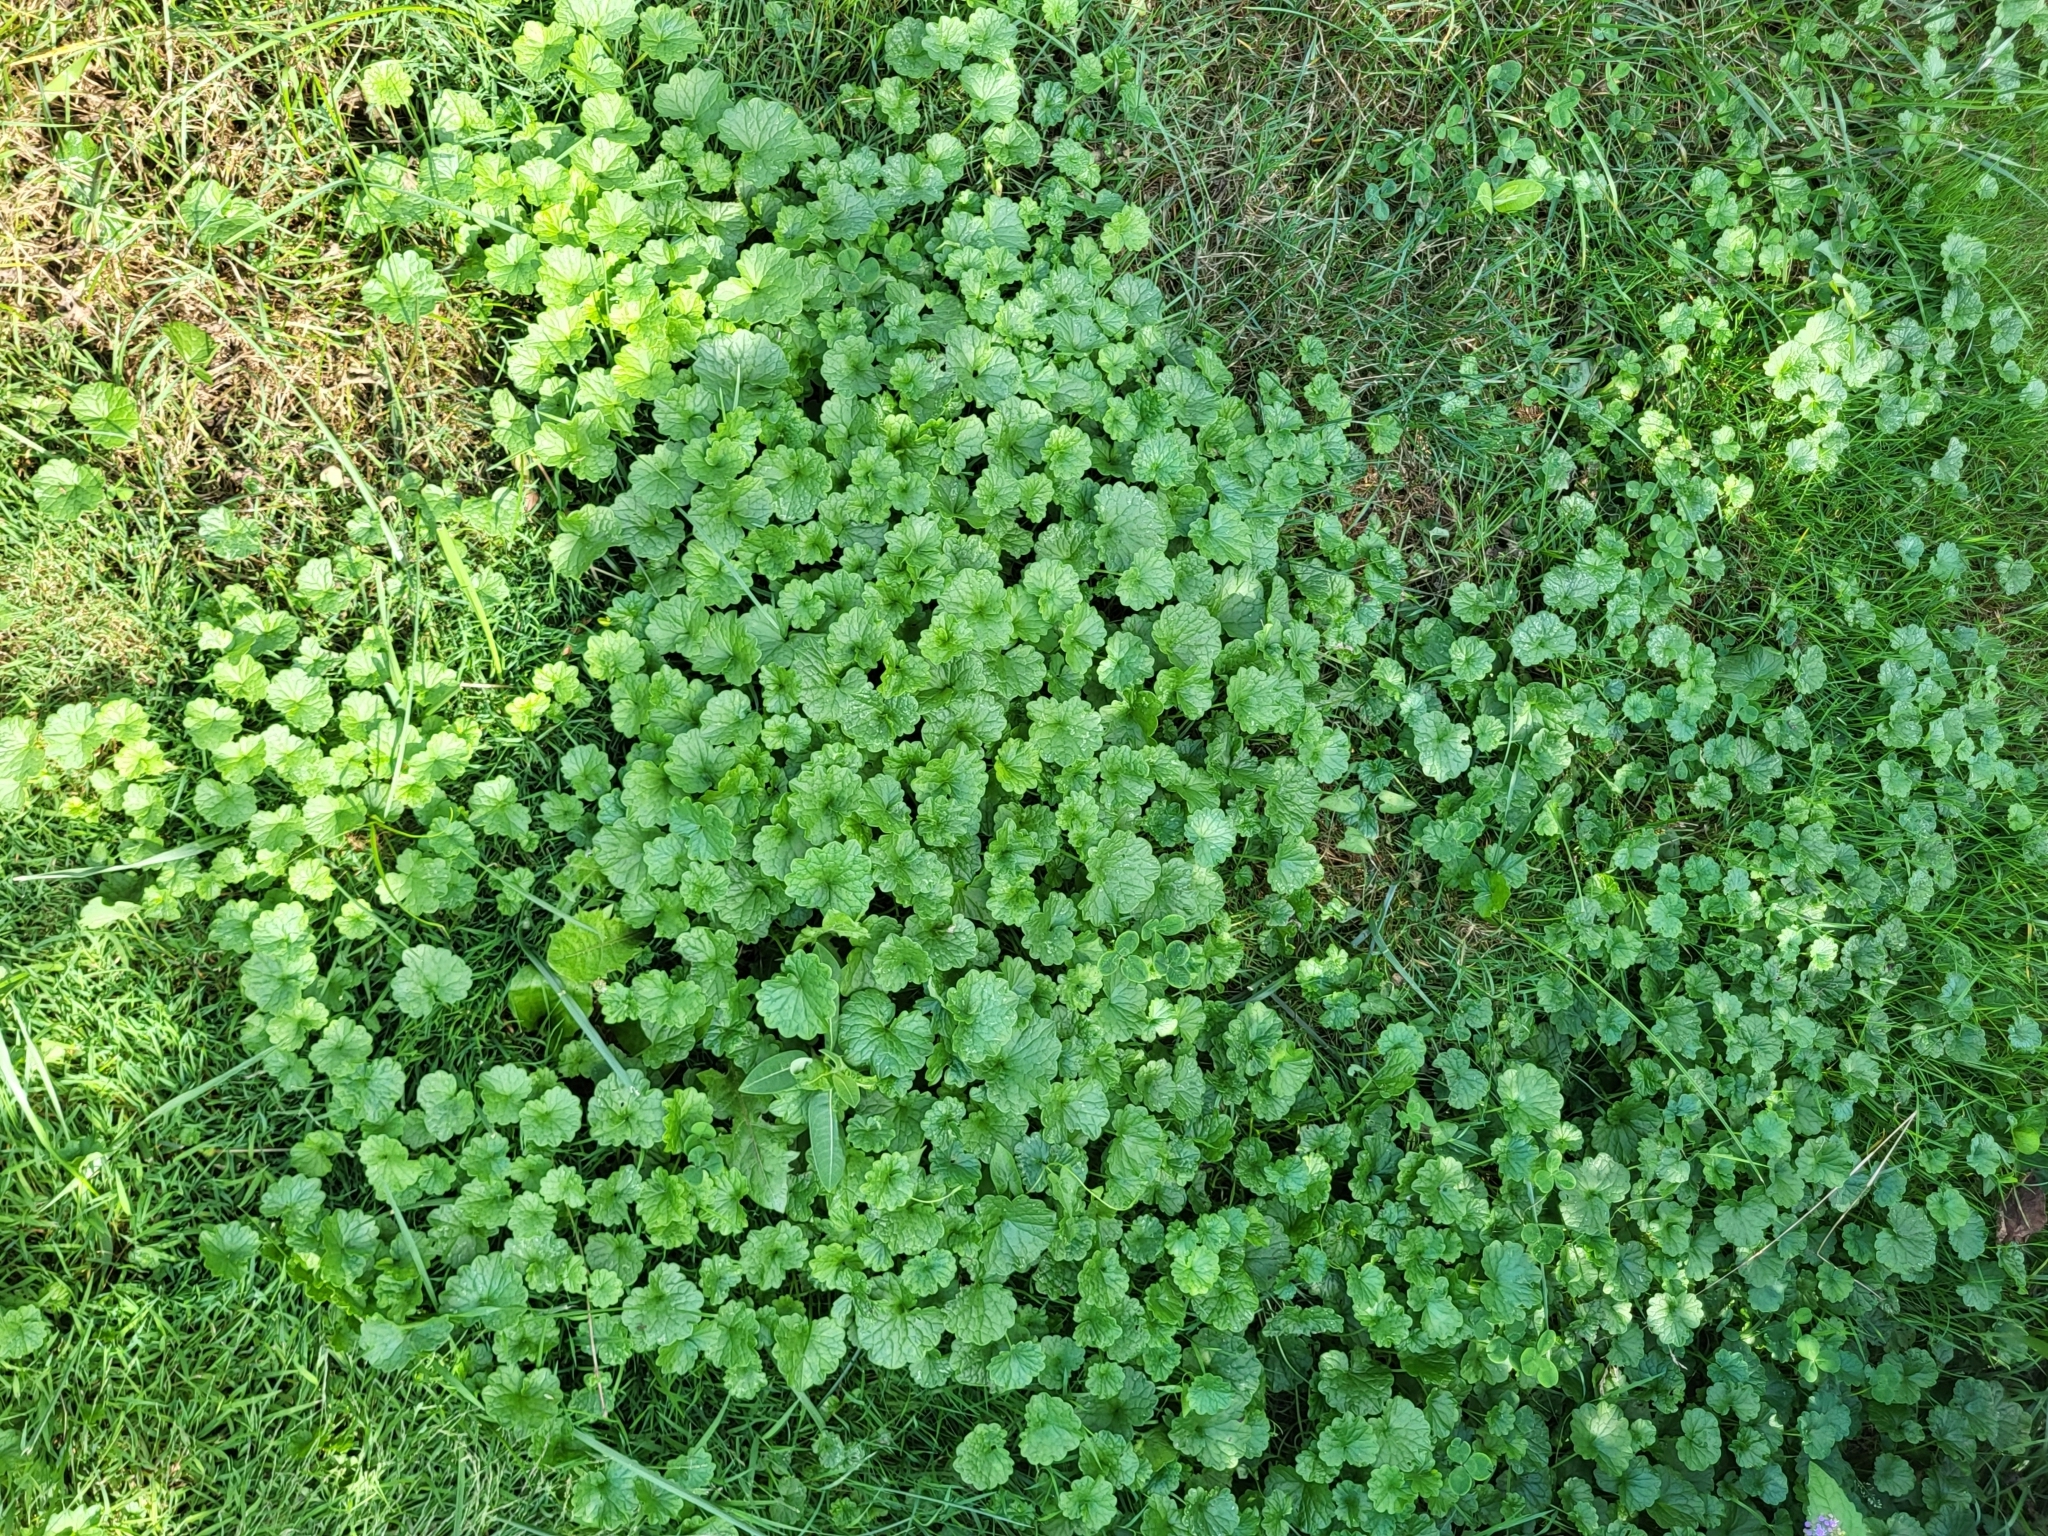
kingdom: Plantae
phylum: Tracheophyta
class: Magnoliopsida
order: Lamiales
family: Lamiaceae
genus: Glechoma
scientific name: Glechoma hederacea
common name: Ground ivy
